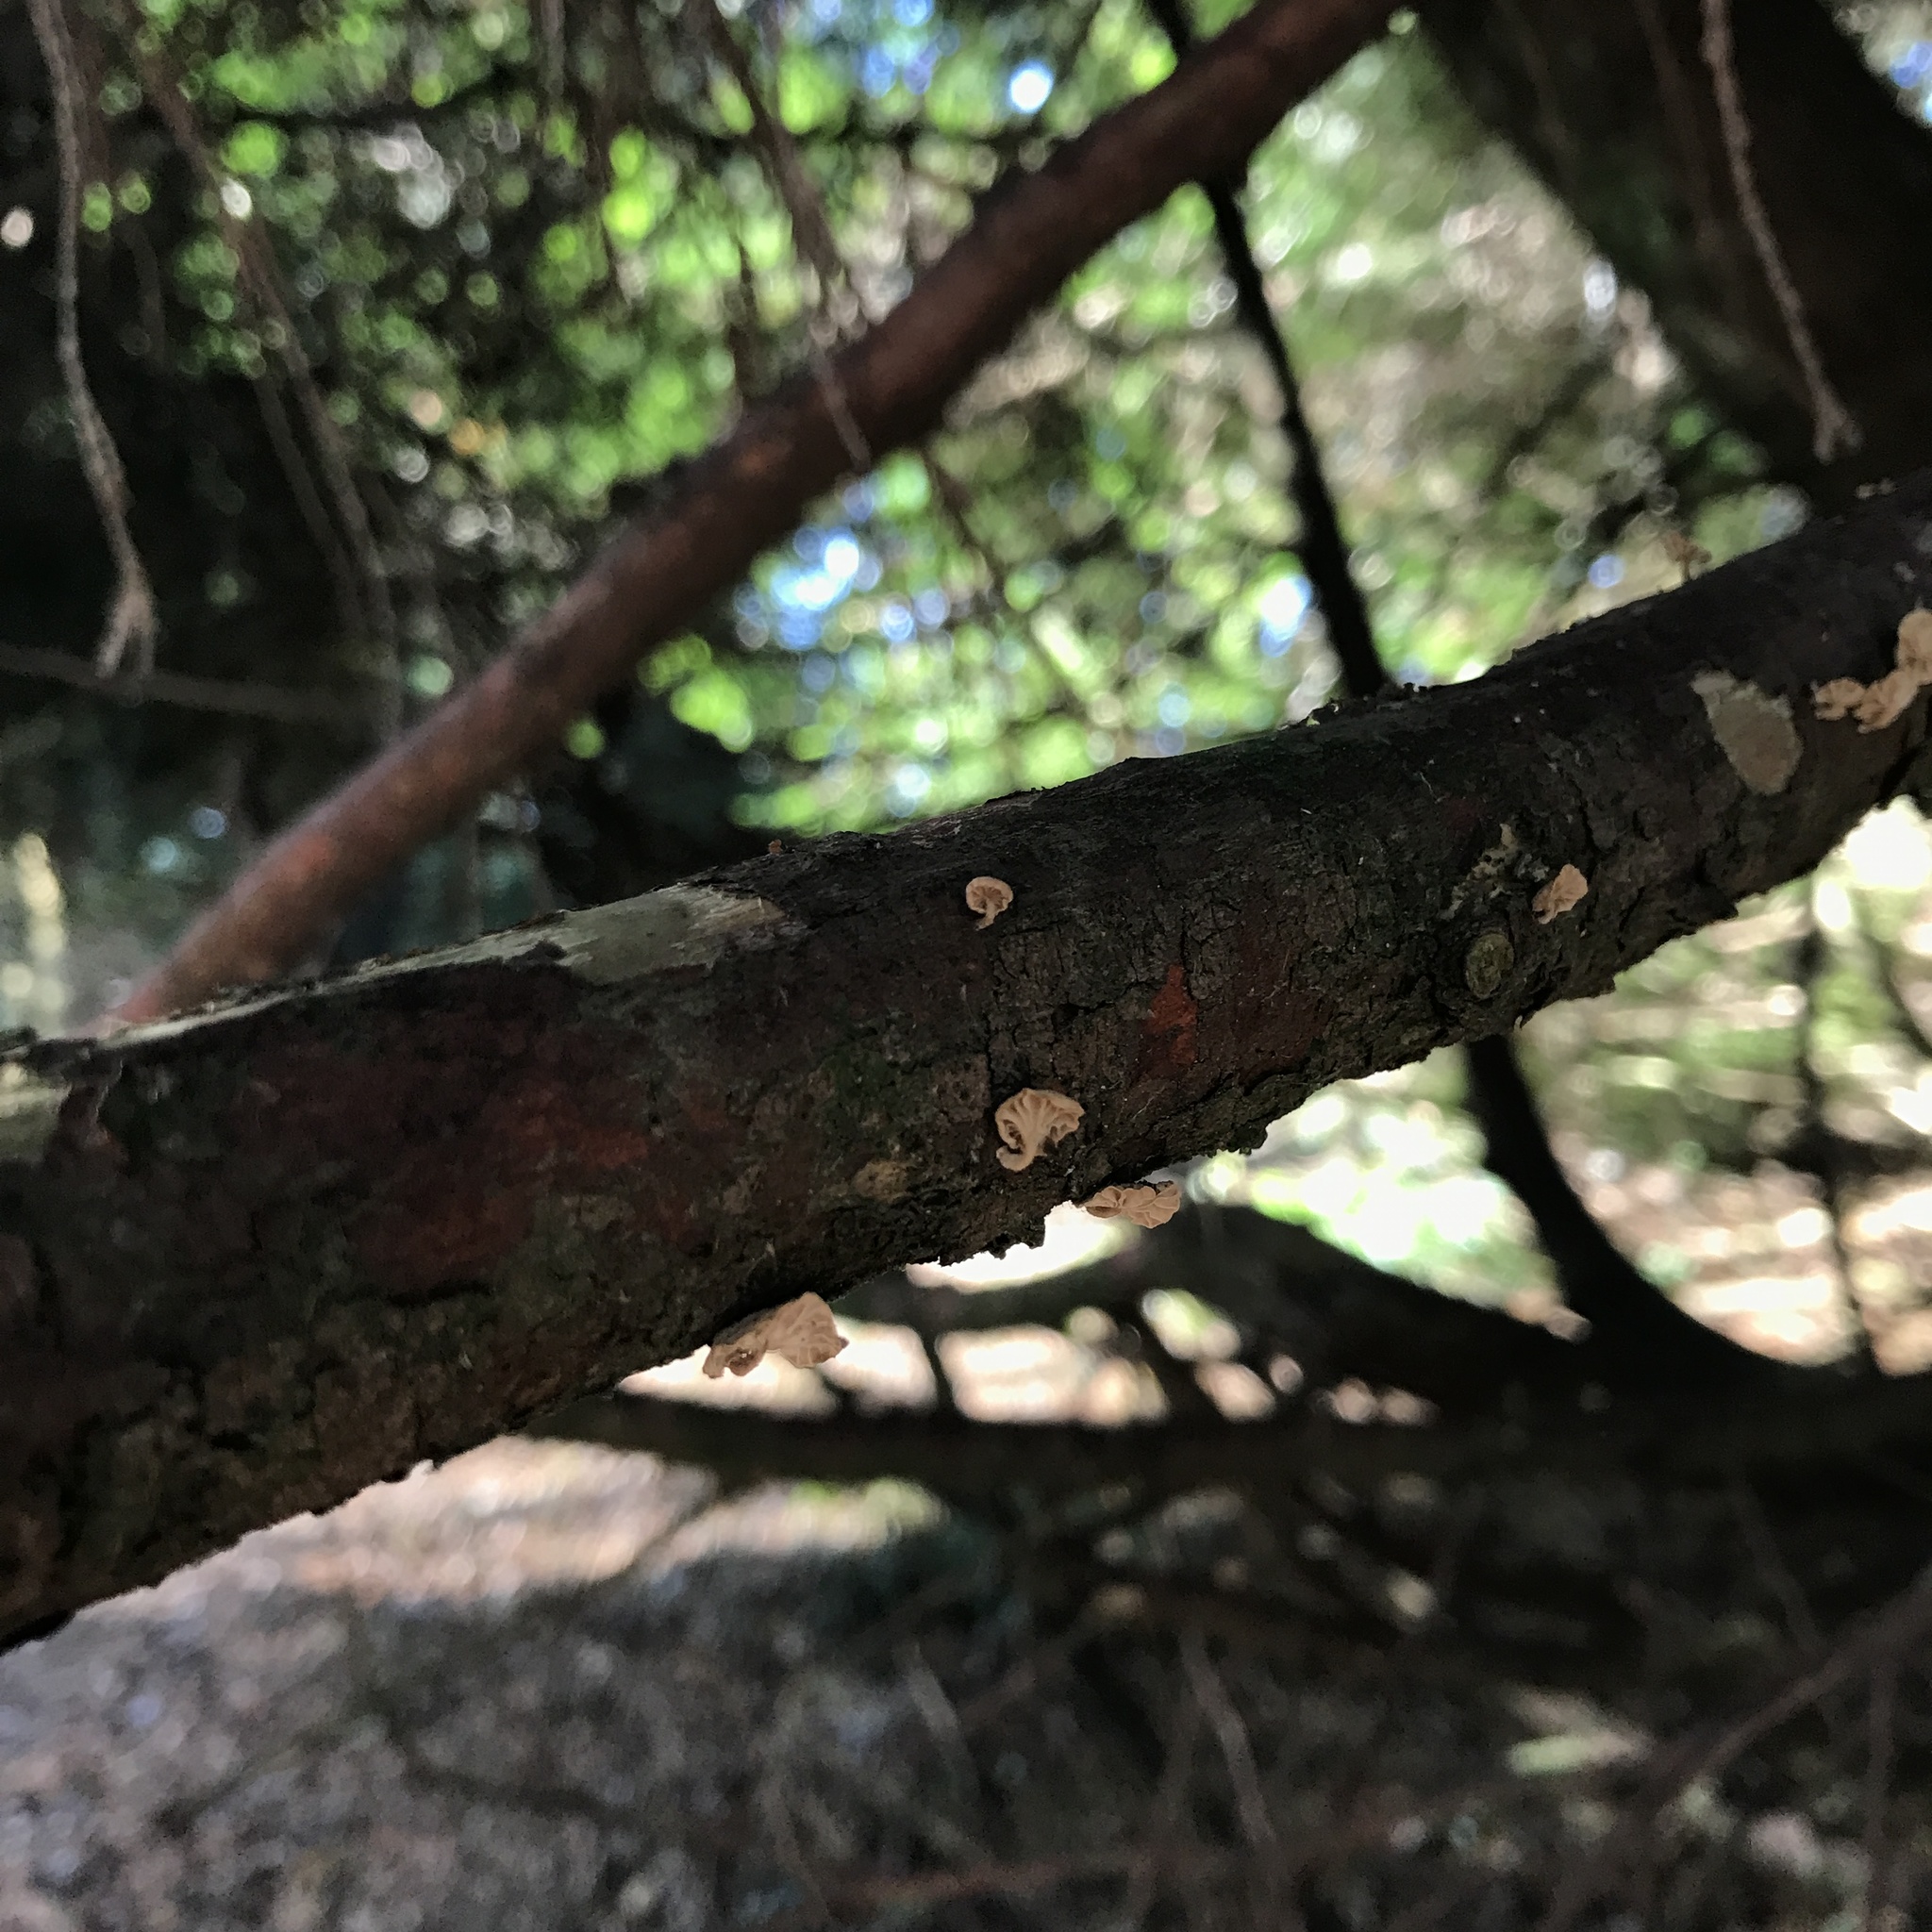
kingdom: Fungi
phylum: Basidiomycota
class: Agaricomycetes
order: Agaricales
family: Omphalotaceae
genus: Marasmiellus
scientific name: Marasmiellus alliiodorus
